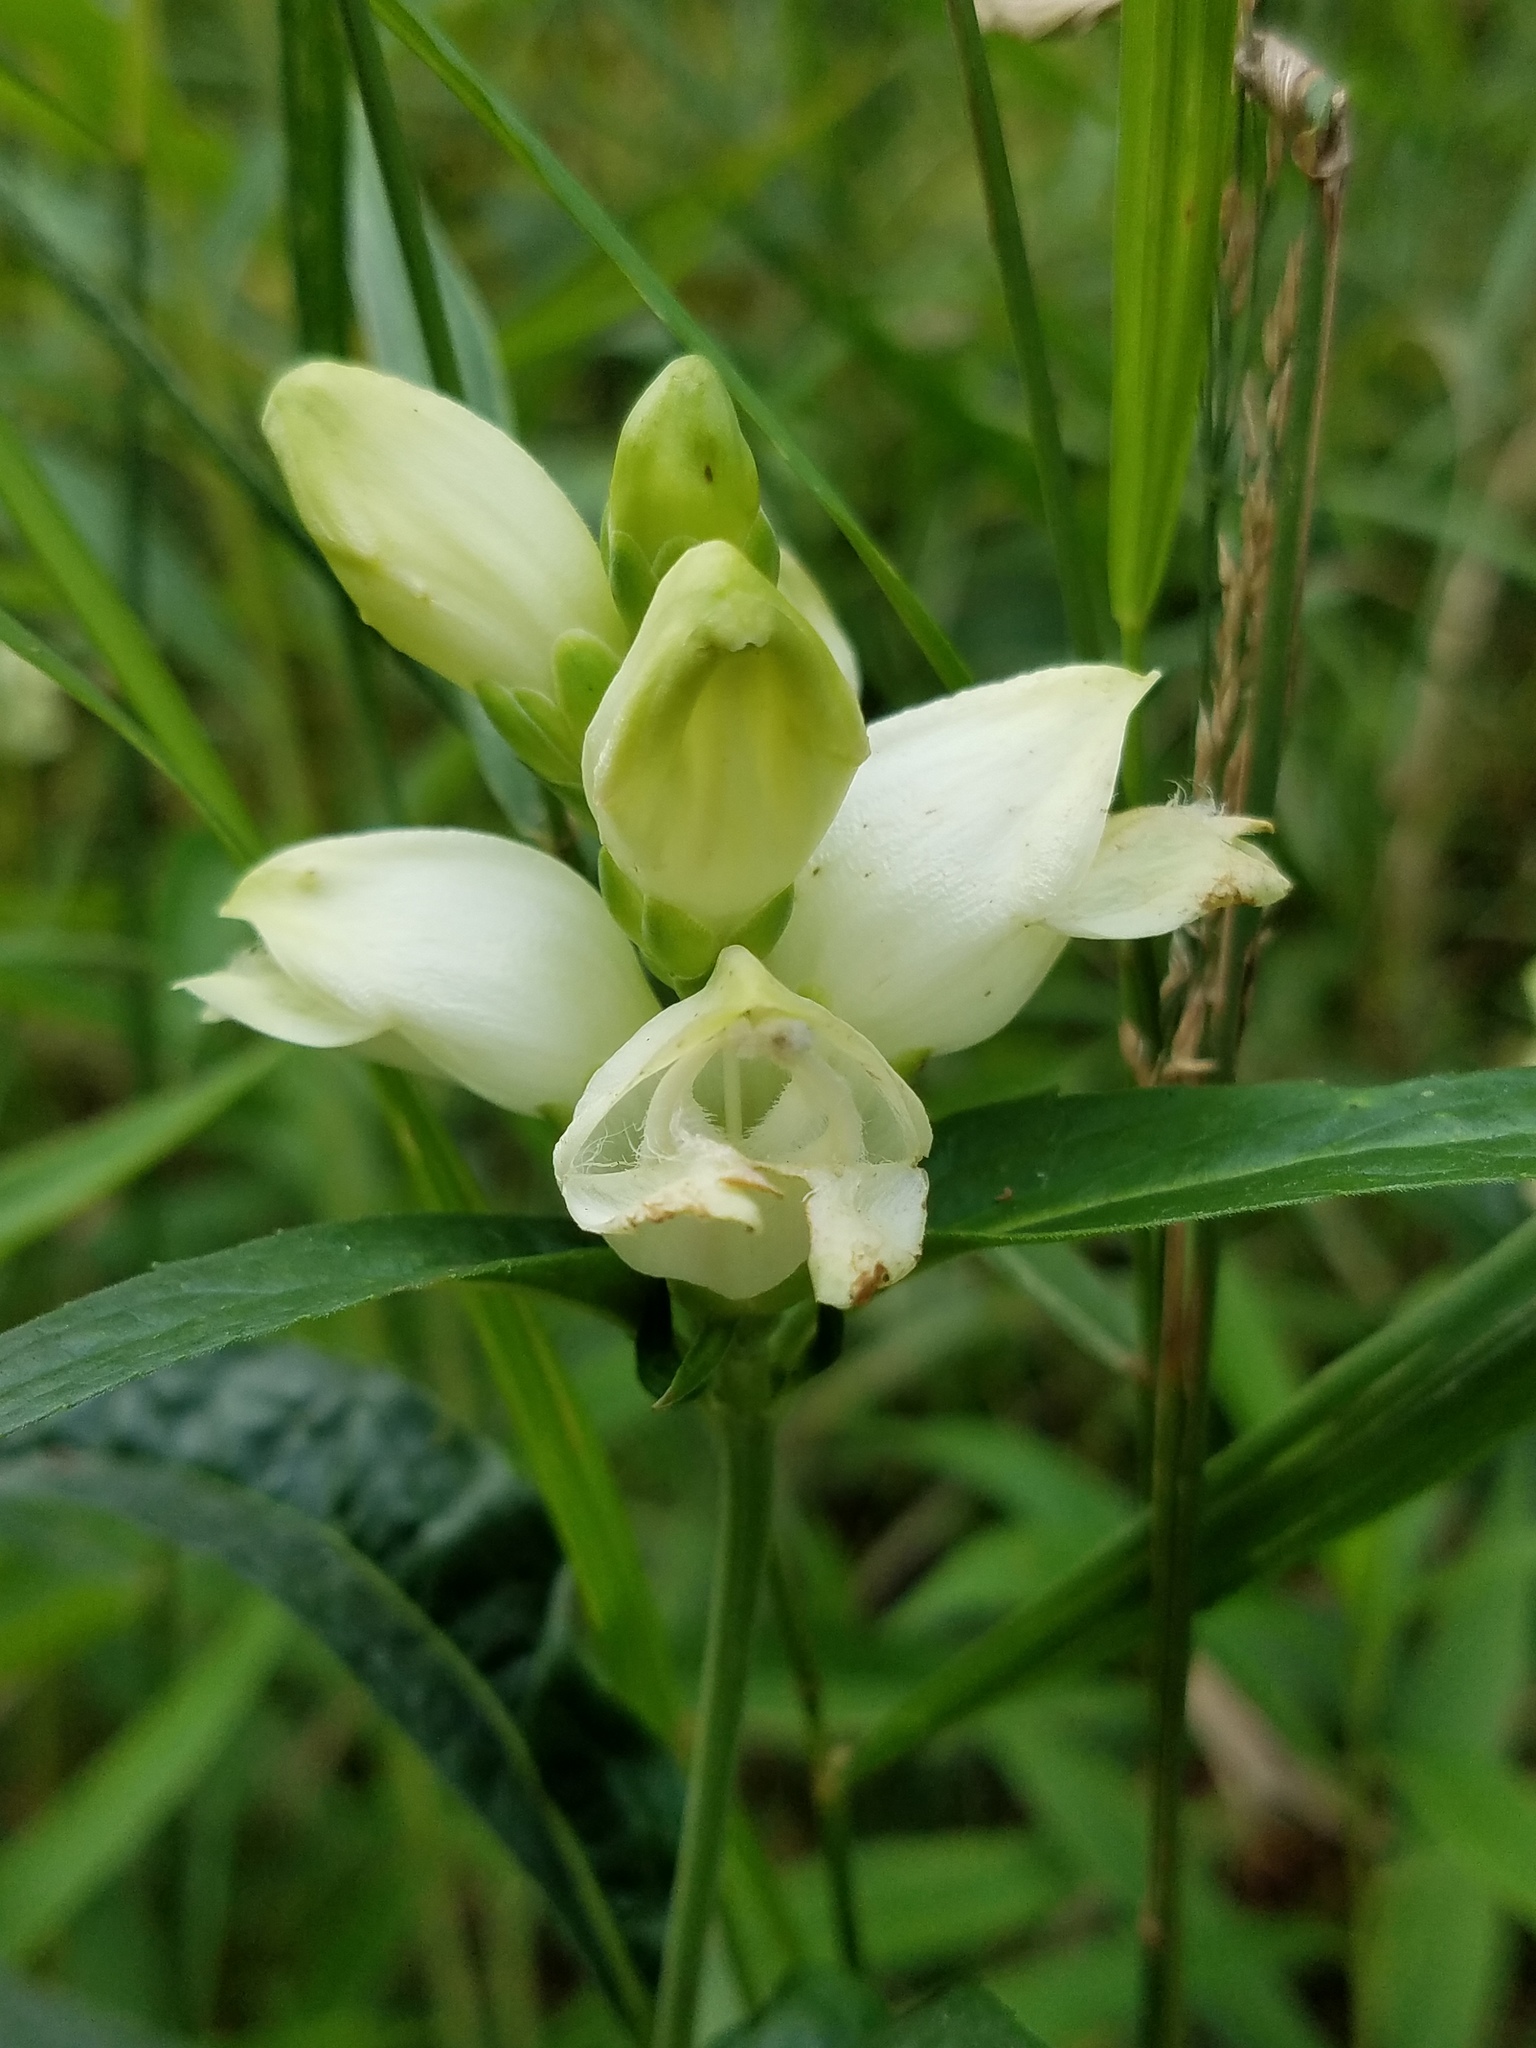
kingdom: Plantae
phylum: Tracheophyta
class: Magnoliopsida
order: Lamiales
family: Plantaginaceae
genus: Chelone
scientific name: Chelone glabra
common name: Snakehead
